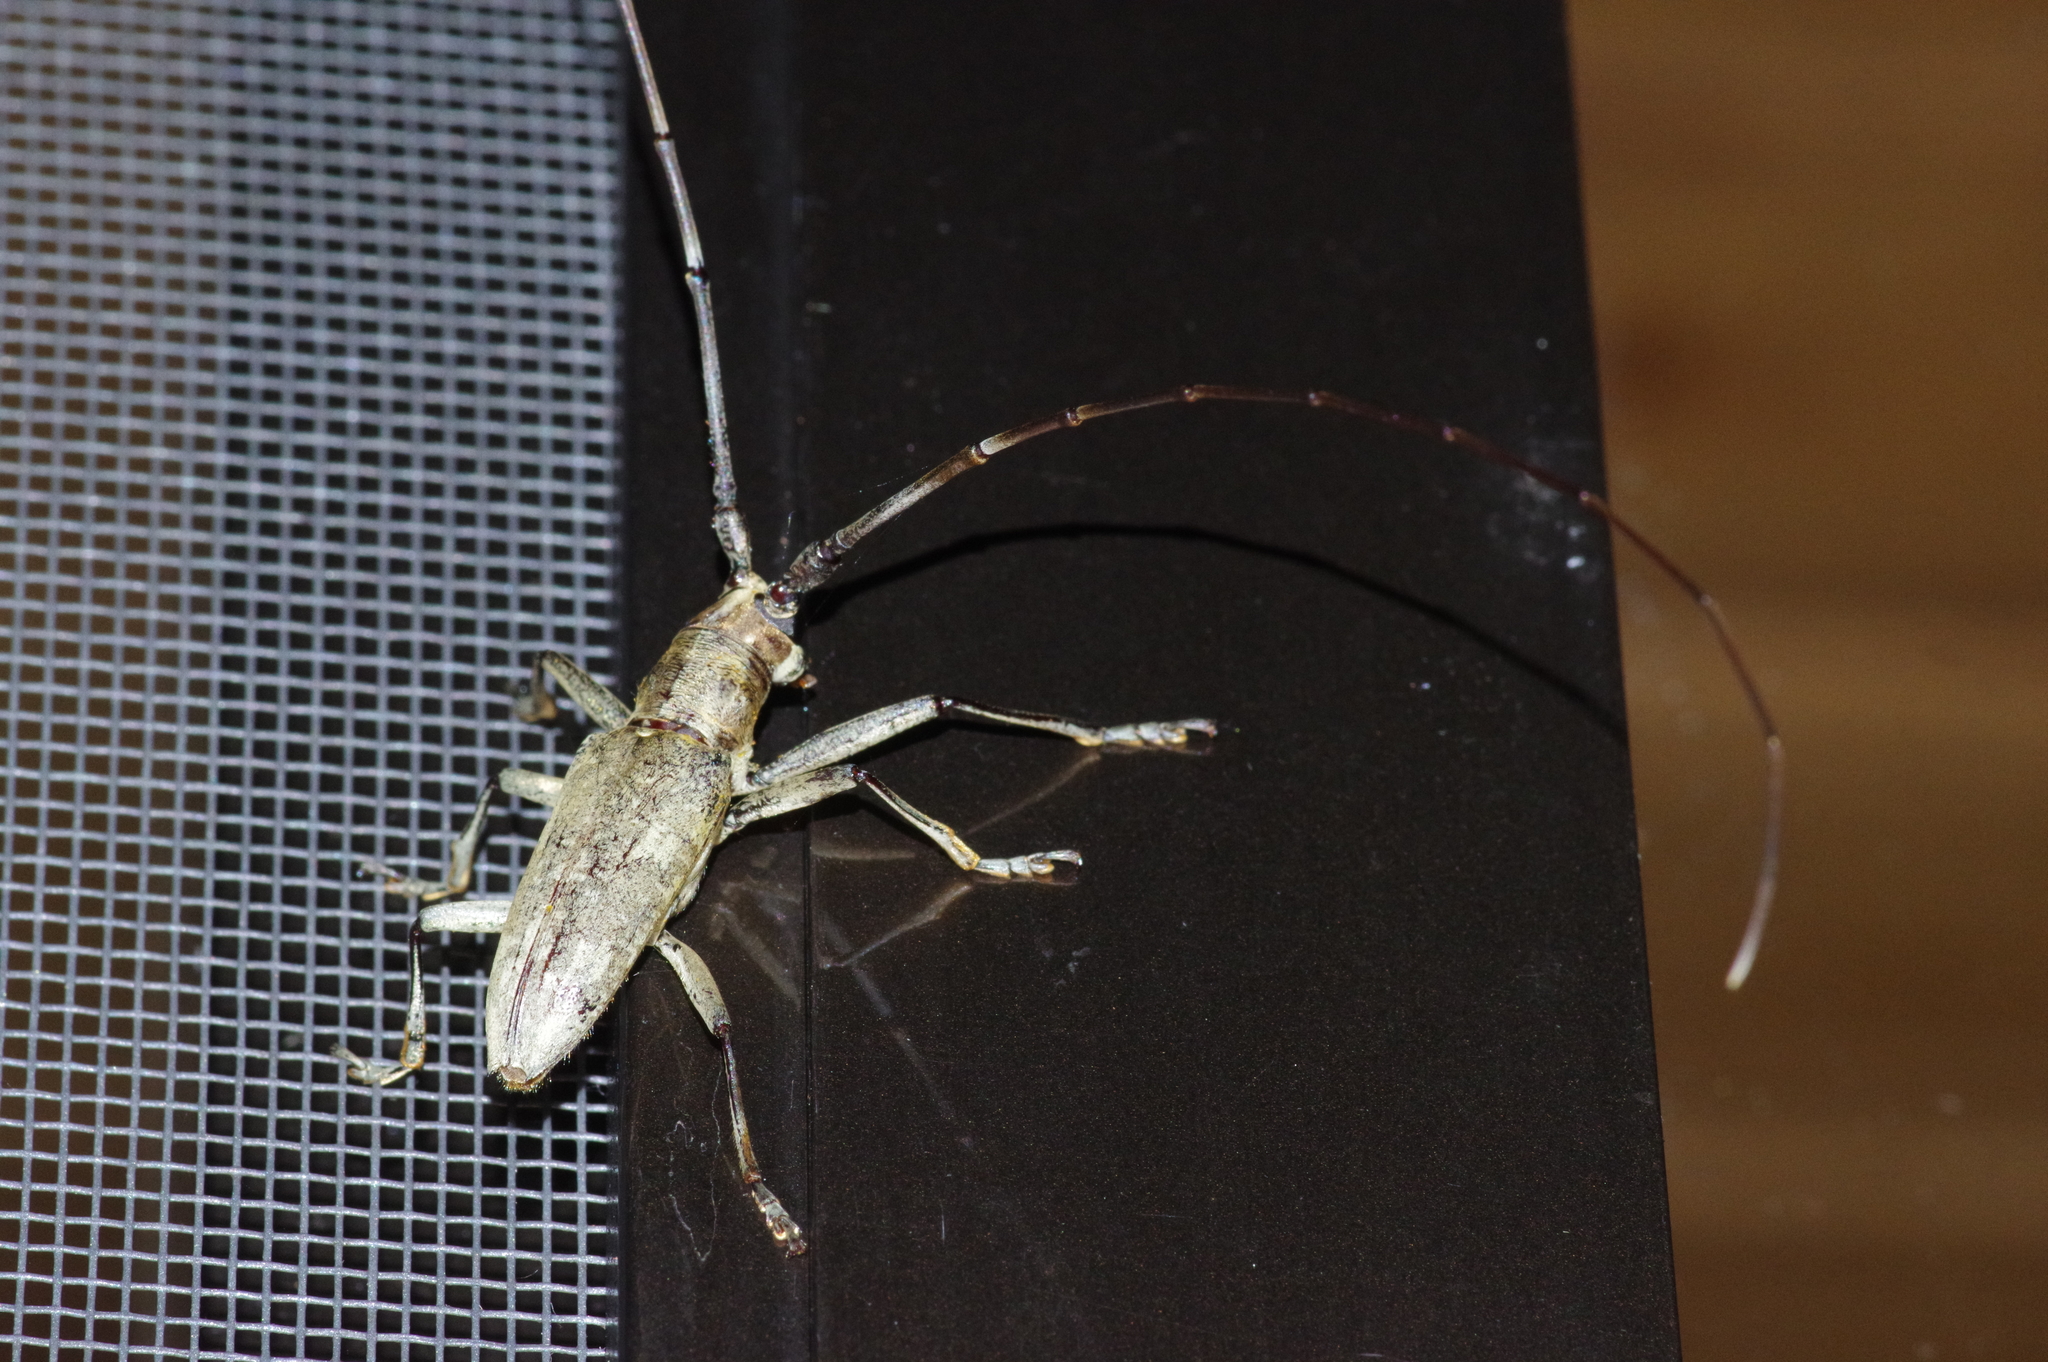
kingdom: Animalia
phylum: Arthropoda
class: Insecta
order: Coleoptera
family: Cerambycidae
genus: Psacothea
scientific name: Psacothea hilaris
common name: Yellow-spotted longicorn beetle
